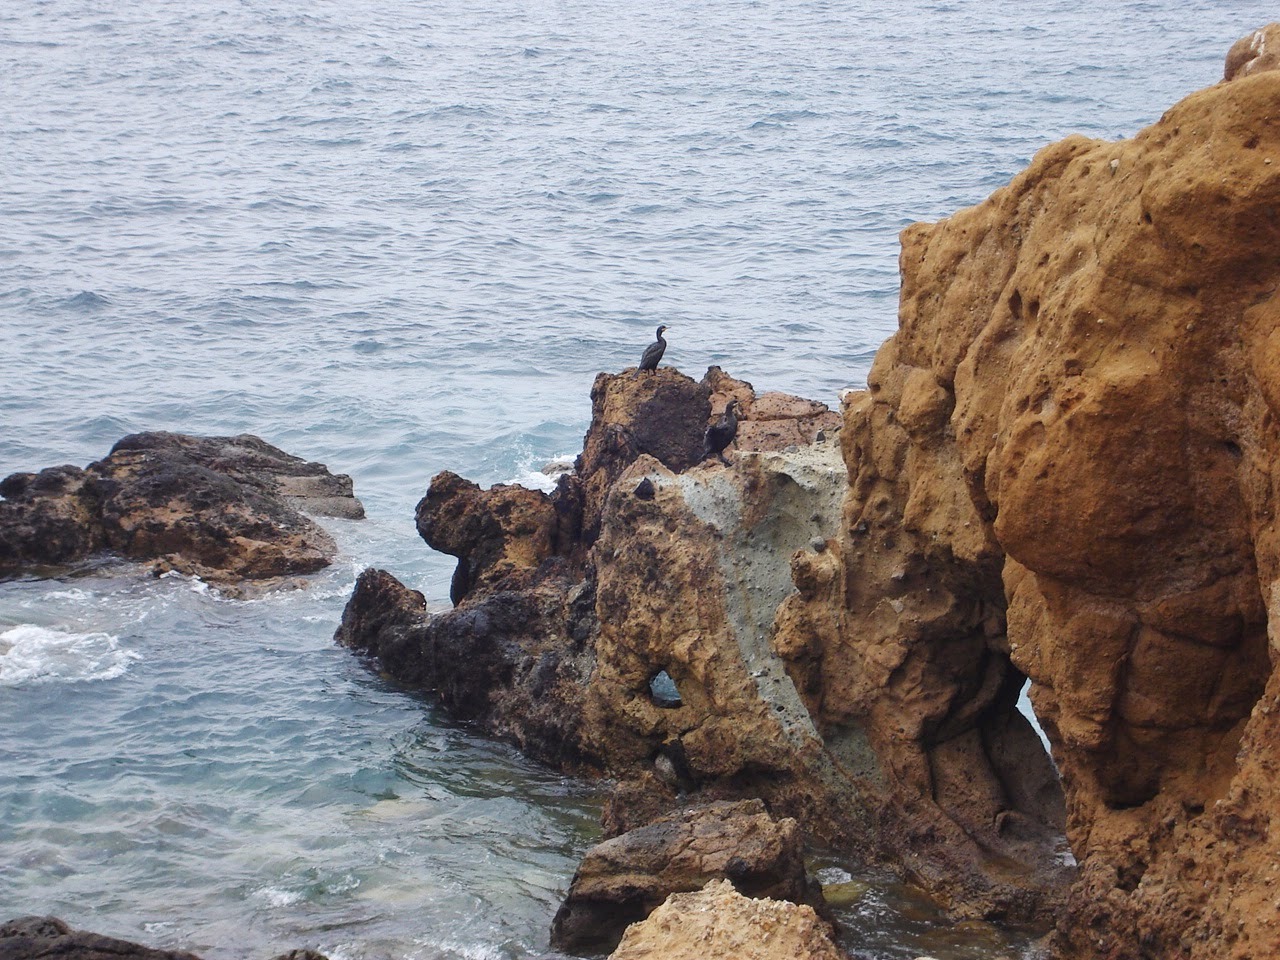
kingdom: Animalia
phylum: Chordata
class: Aves
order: Suliformes
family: Phalacrocoracidae
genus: Phalacrocorax
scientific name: Phalacrocorax aristotelis
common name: European shag
